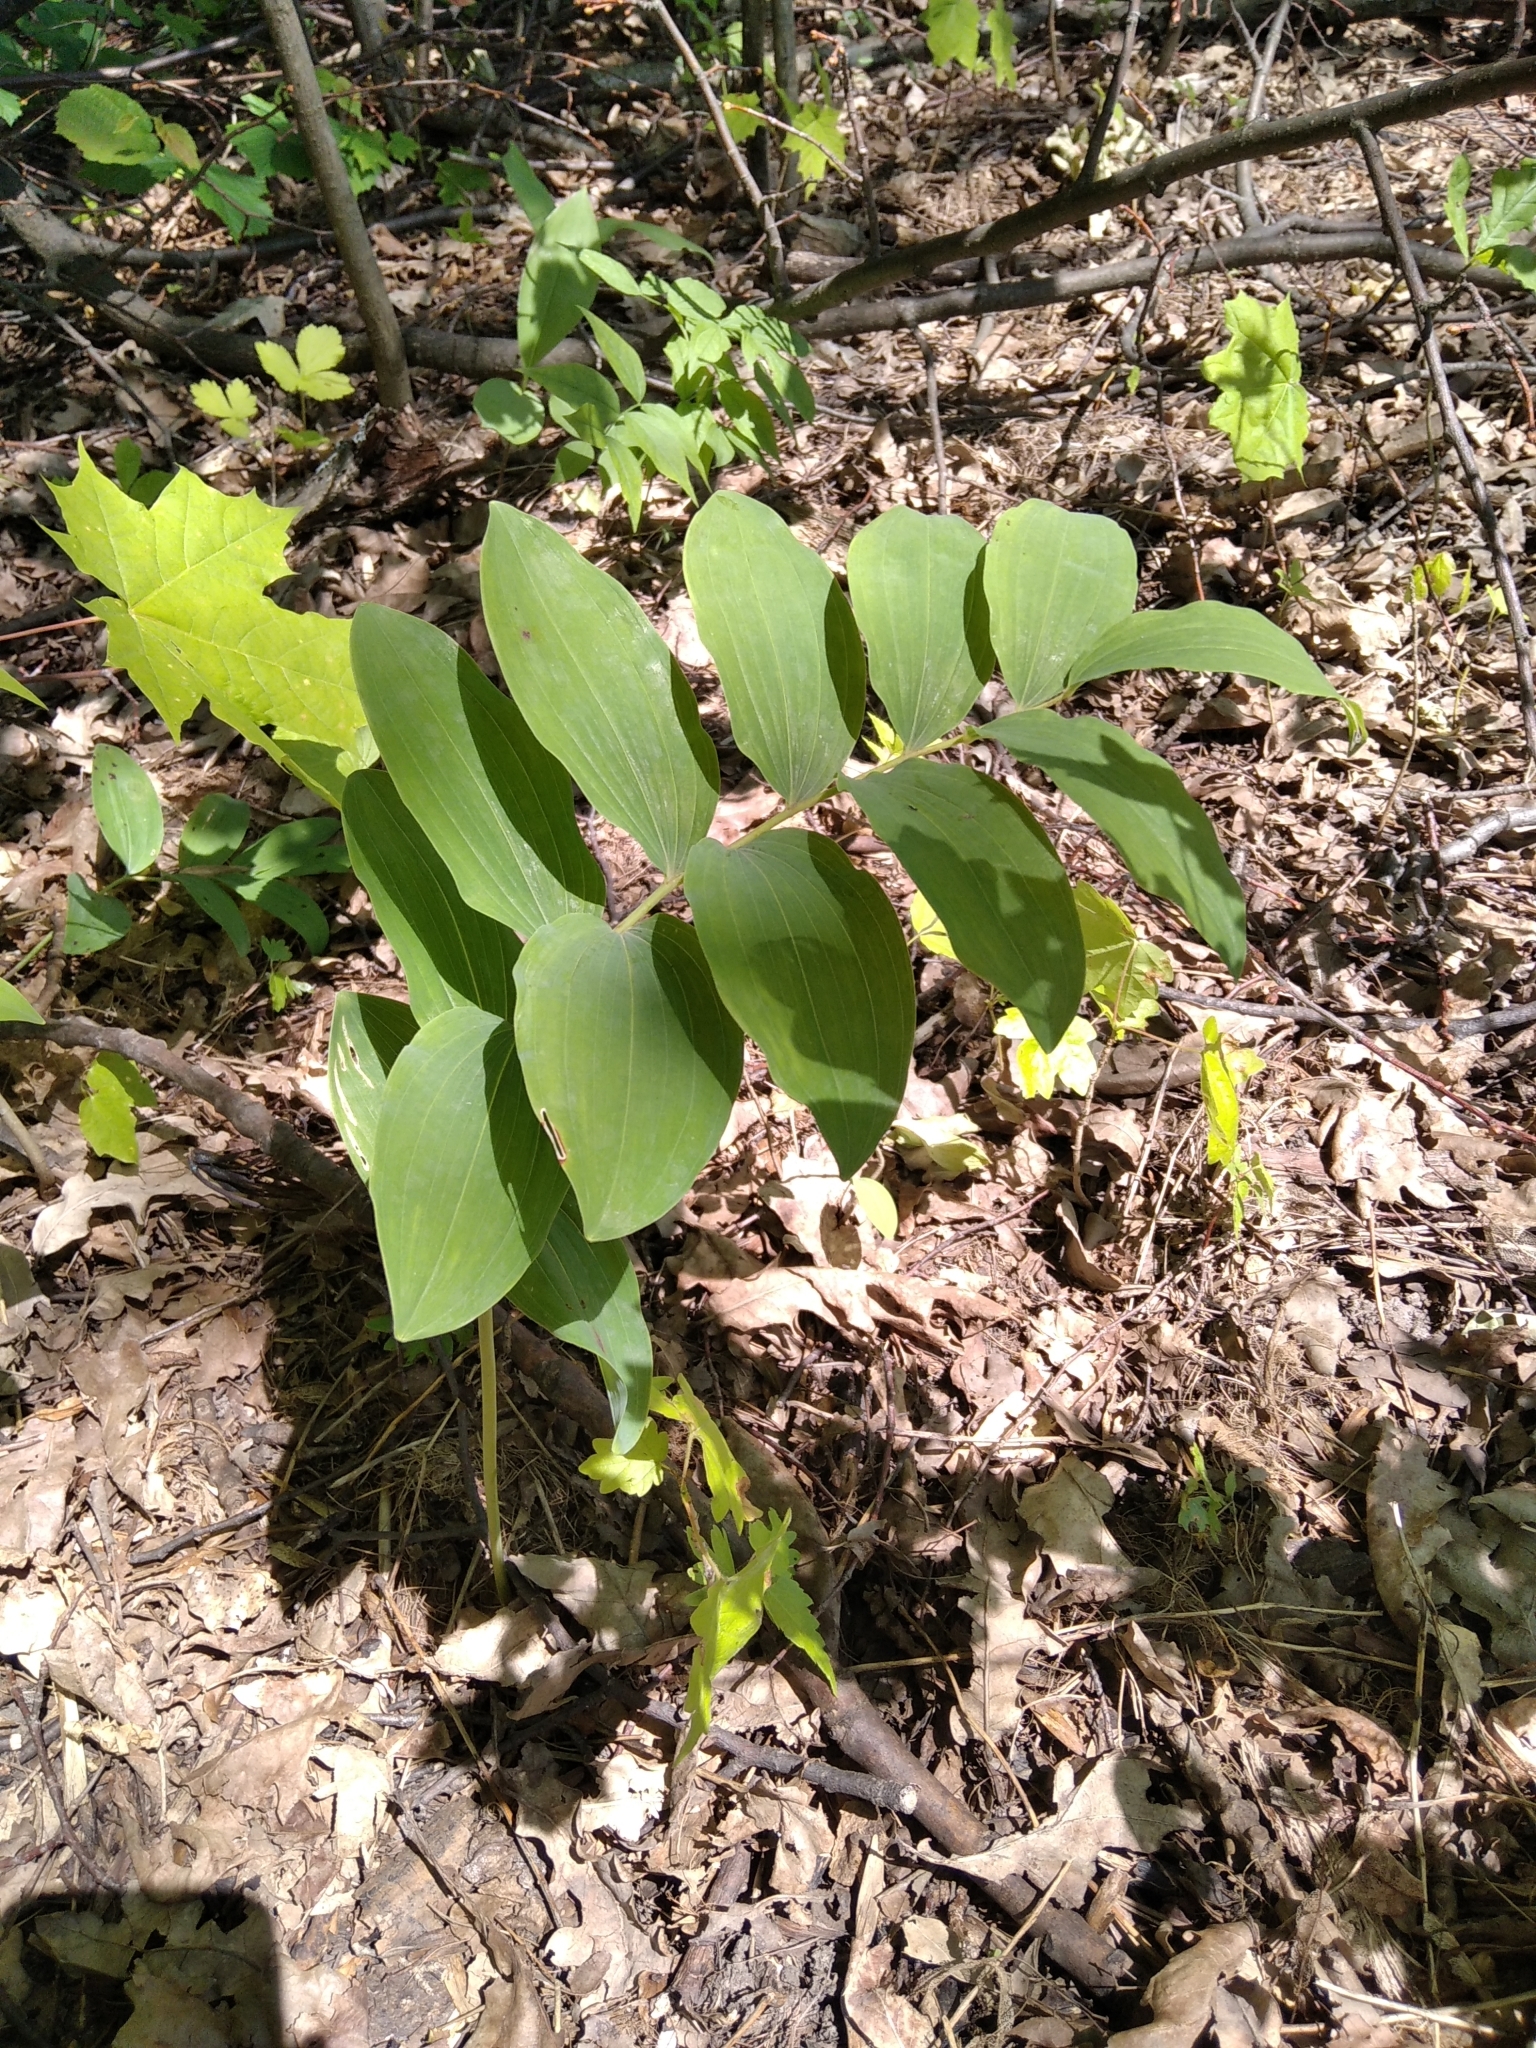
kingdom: Plantae
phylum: Tracheophyta
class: Liliopsida
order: Asparagales
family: Asparagaceae
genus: Polygonatum
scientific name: Polygonatum multiflorum
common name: Solomon's-seal
